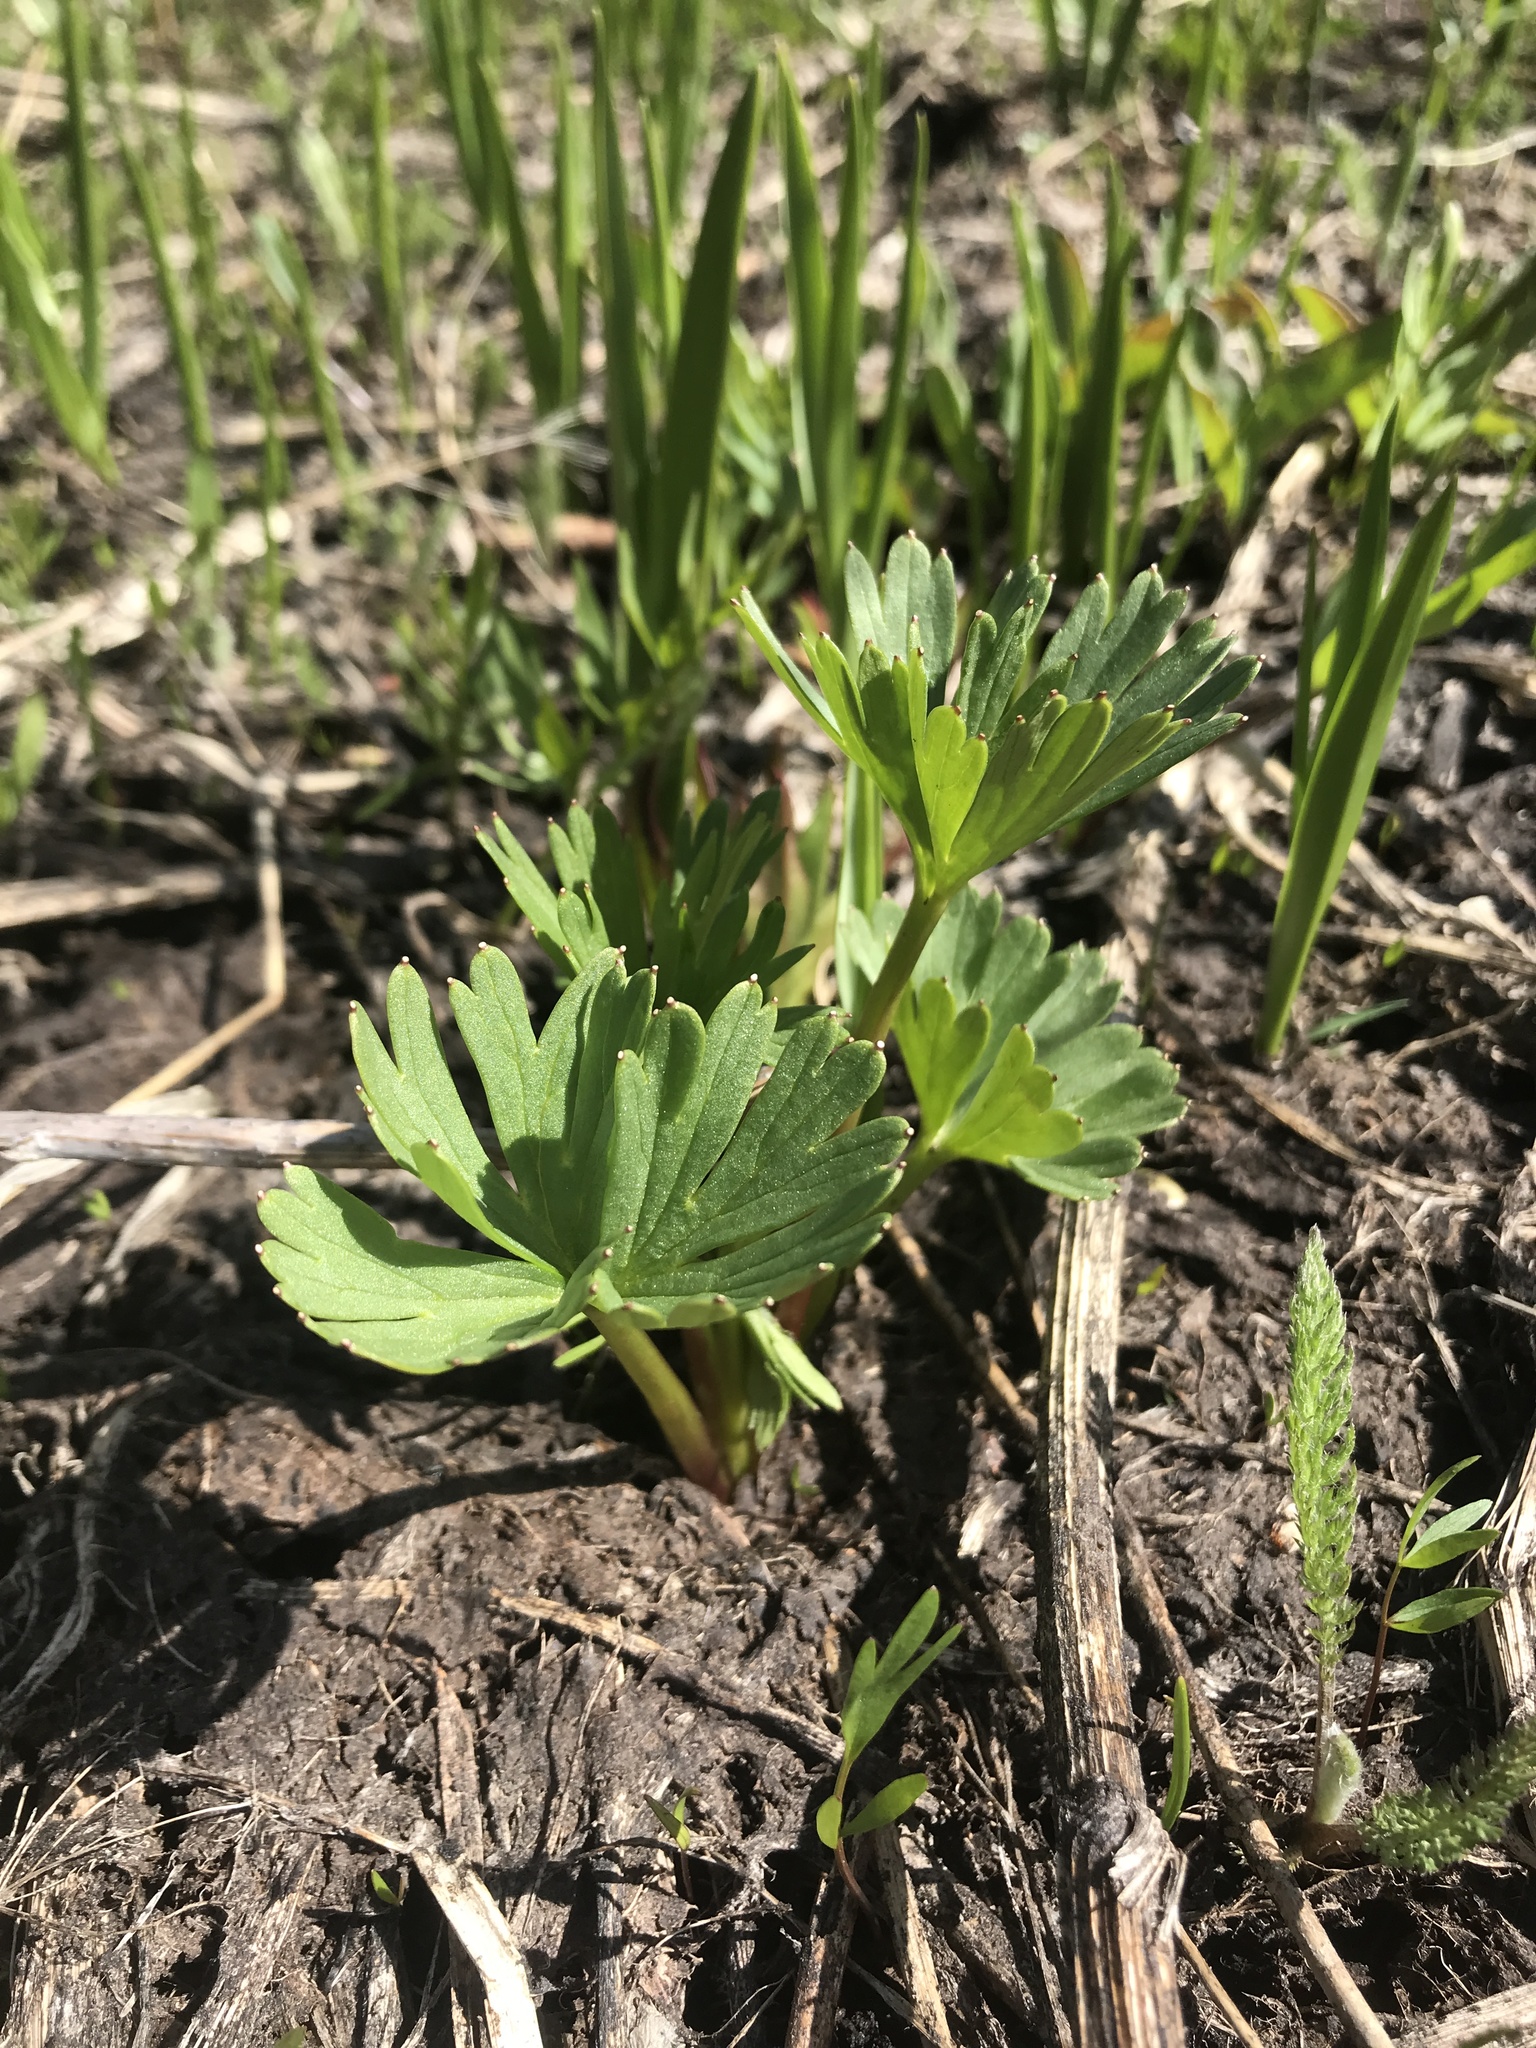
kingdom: Plantae
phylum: Tracheophyta
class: Magnoliopsida
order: Ranunculales
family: Ranunculaceae
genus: Delphinium
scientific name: Delphinium viridescens
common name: Wenatchee larkspur
